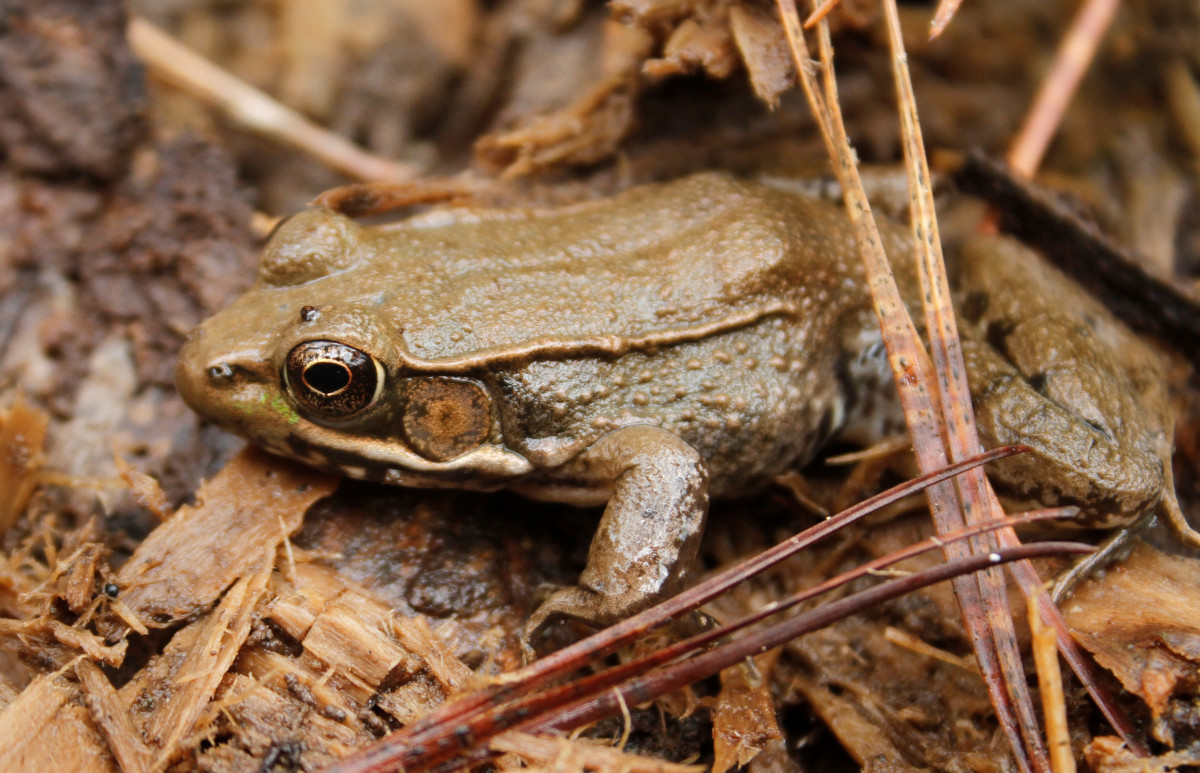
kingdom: Animalia
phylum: Chordata
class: Amphibia
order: Anura
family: Ranidae
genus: Lithobates
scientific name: Lithobates clamitans
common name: Green frog
